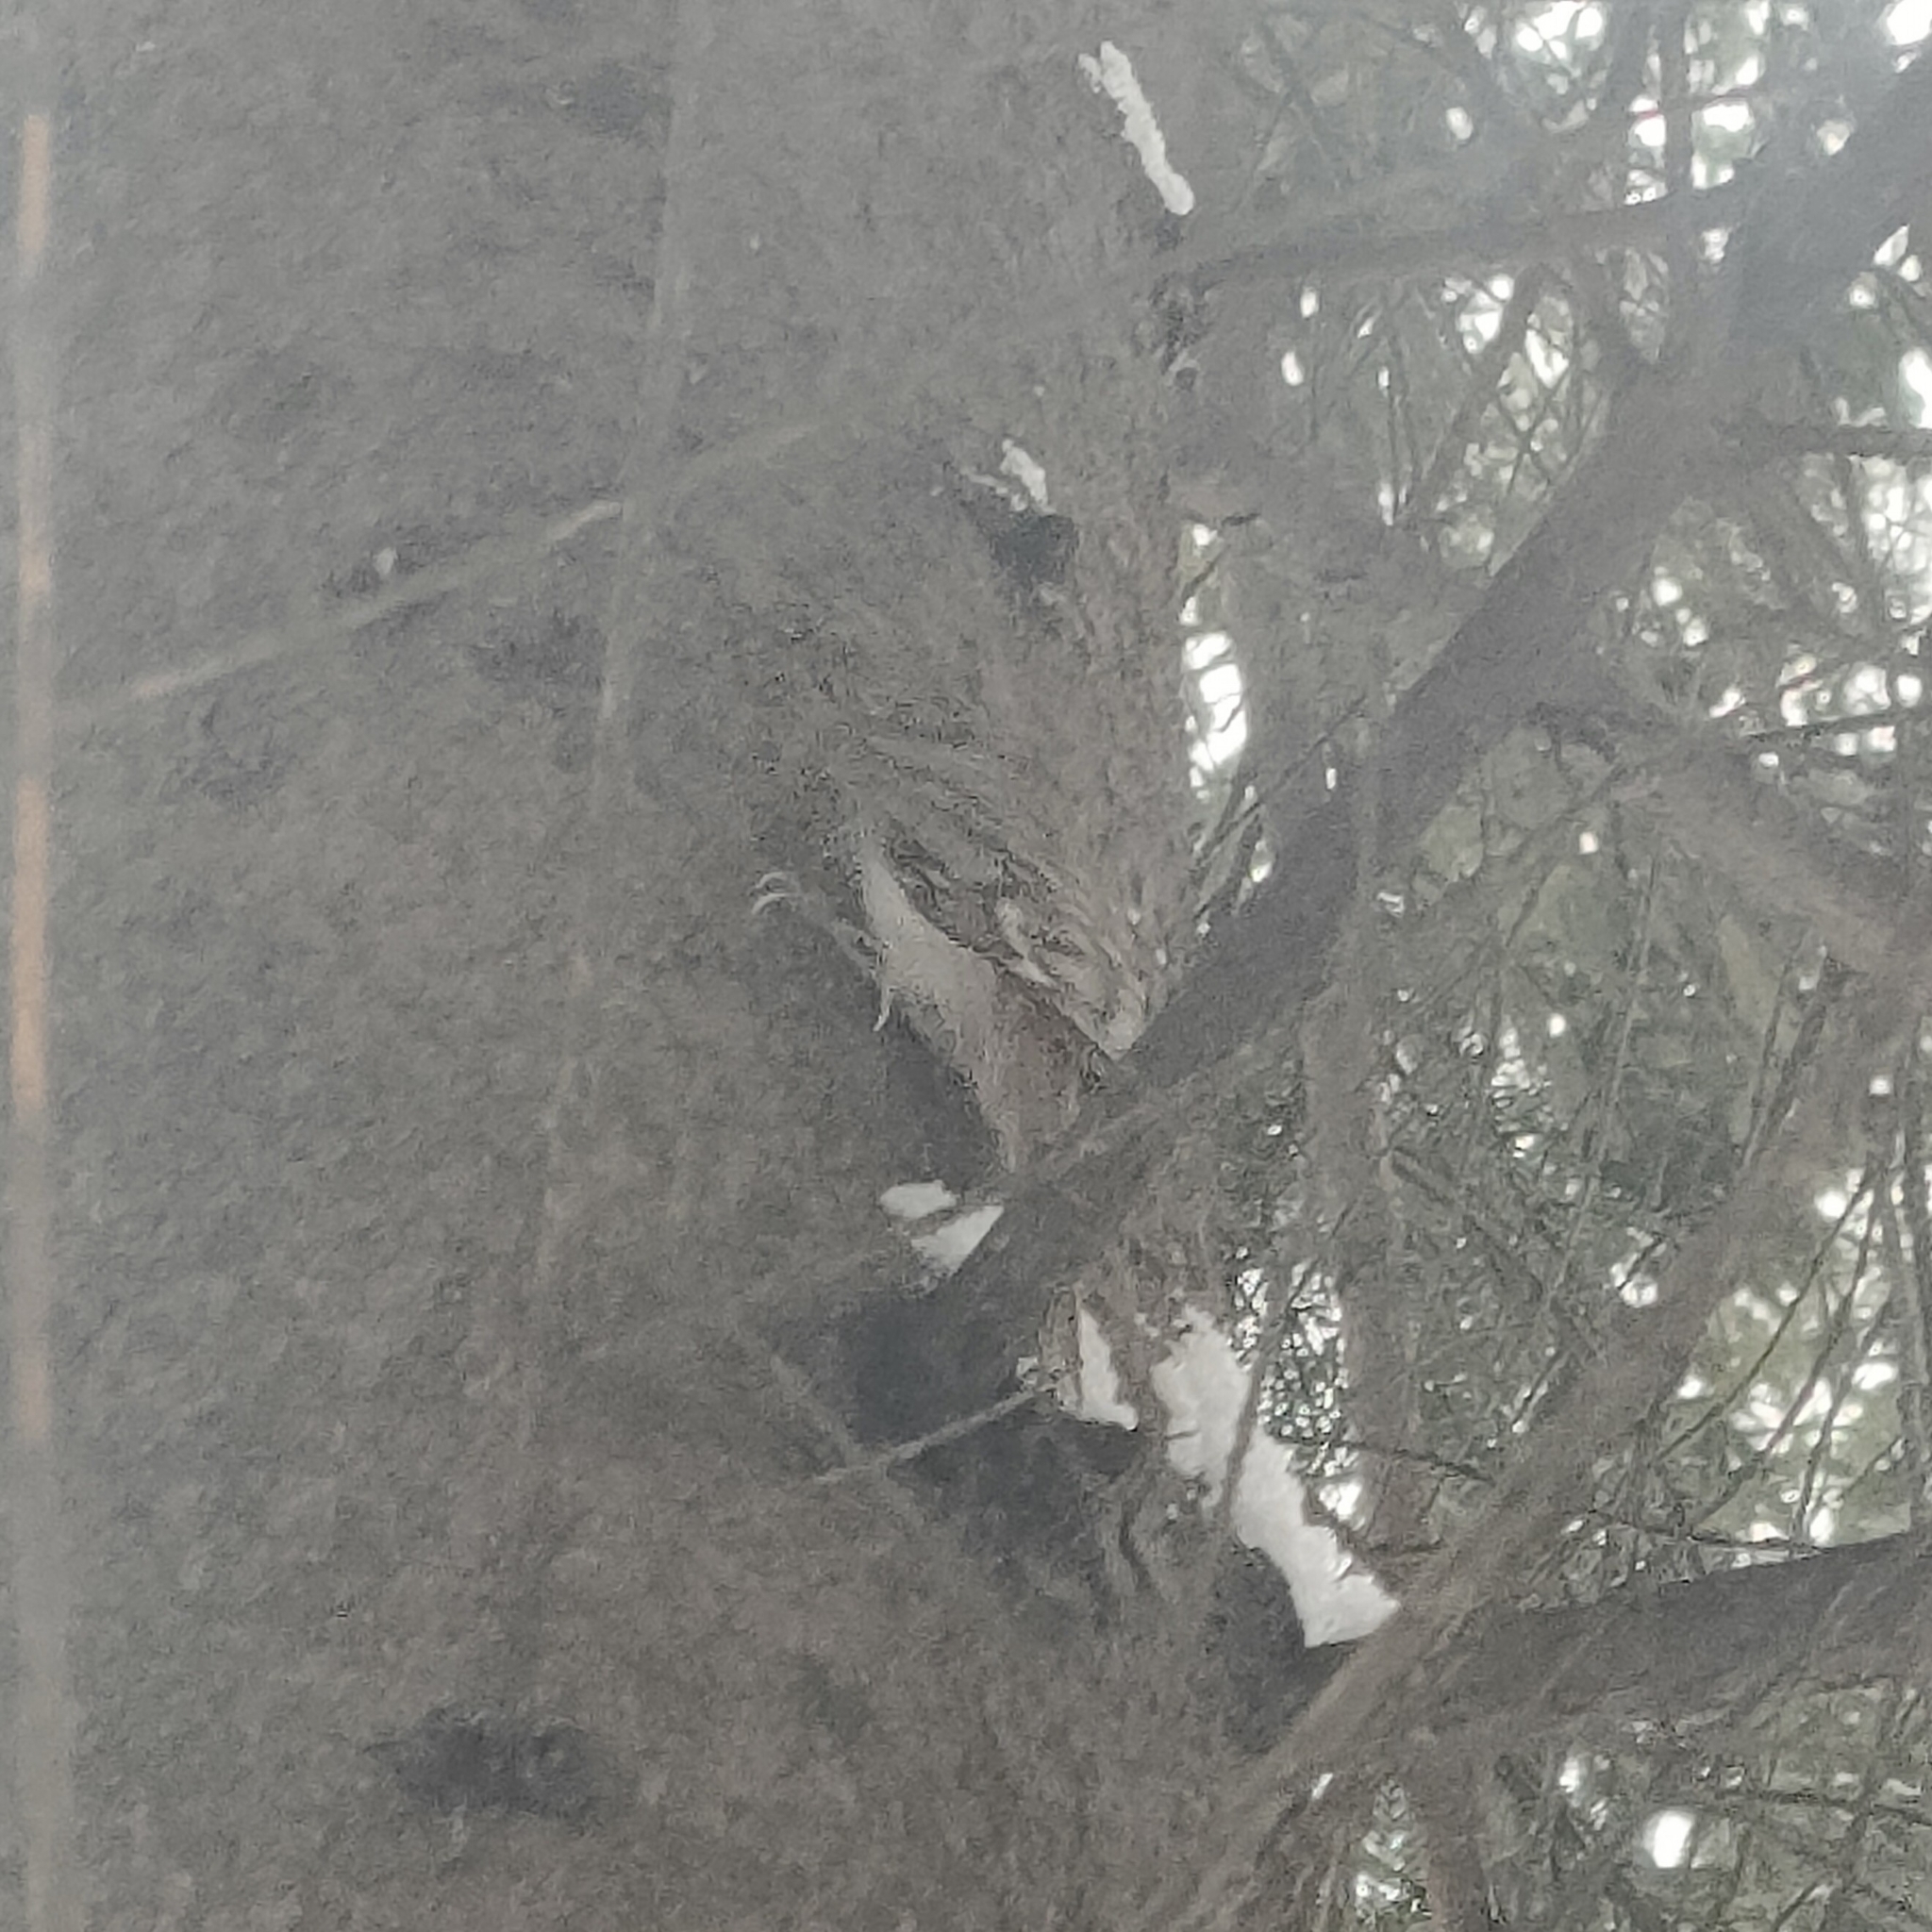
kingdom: Animalia
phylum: Chordata
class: Aves
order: Passeriformes
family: Certhiidae
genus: Certhia
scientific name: Certhia familiaris
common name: Eurasian treecreeper
